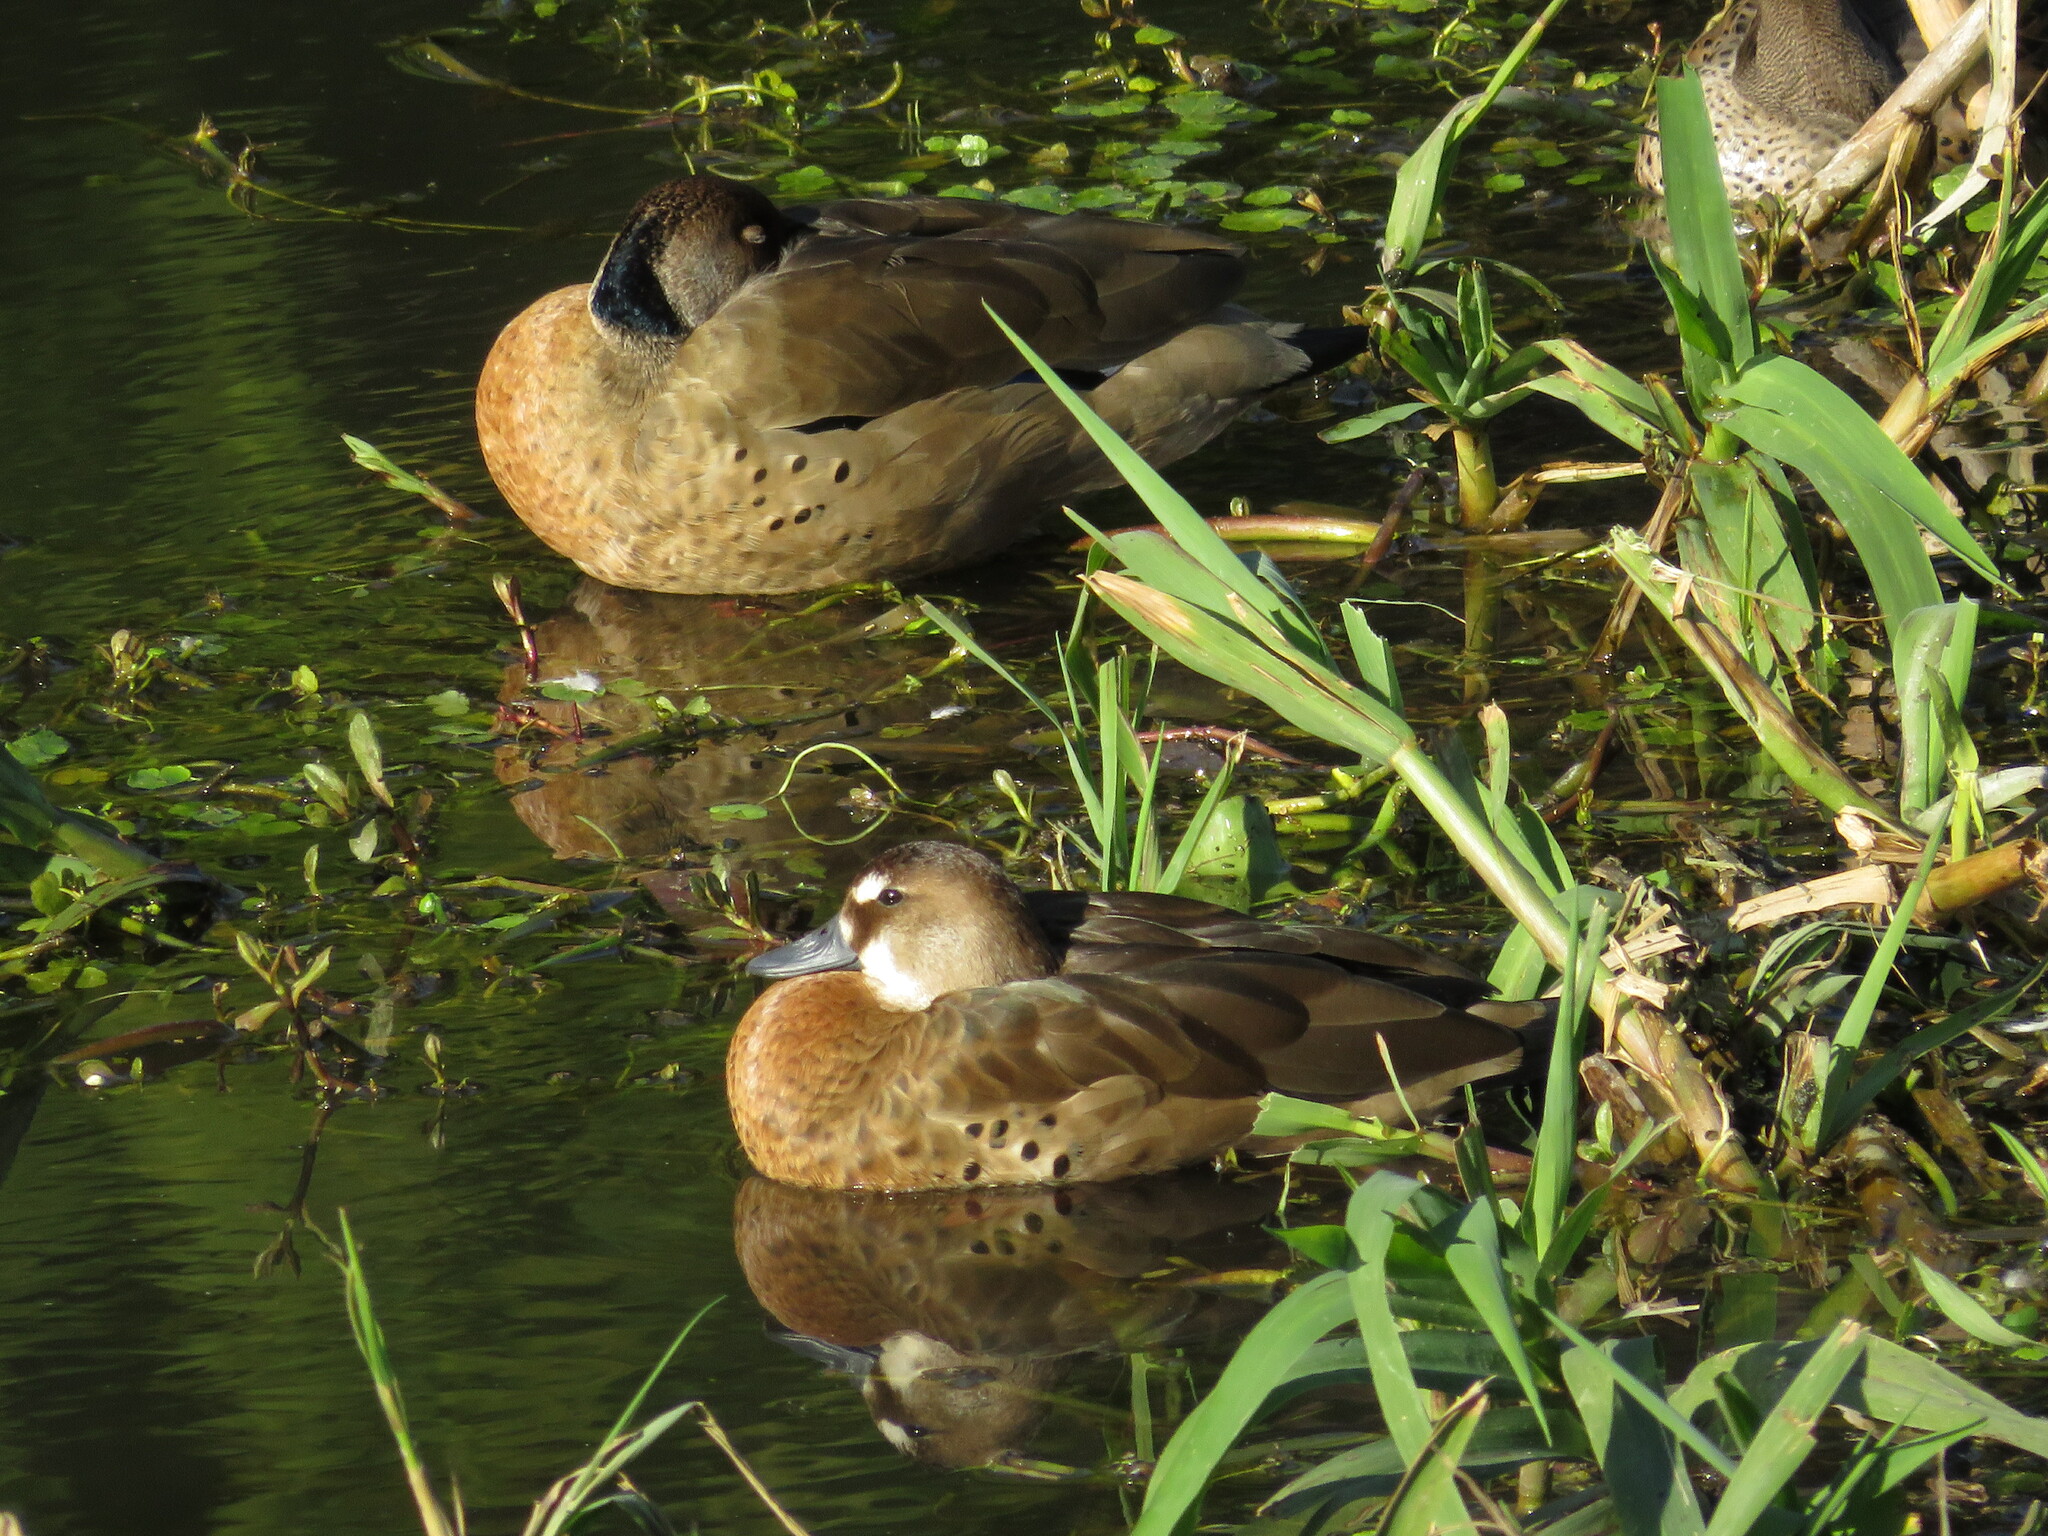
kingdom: Animalia
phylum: Chordata
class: Aves
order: Anseriformes
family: Anatidae
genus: Amazonetta
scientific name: Amazonetta brasiliensis
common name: Brazilian teal
